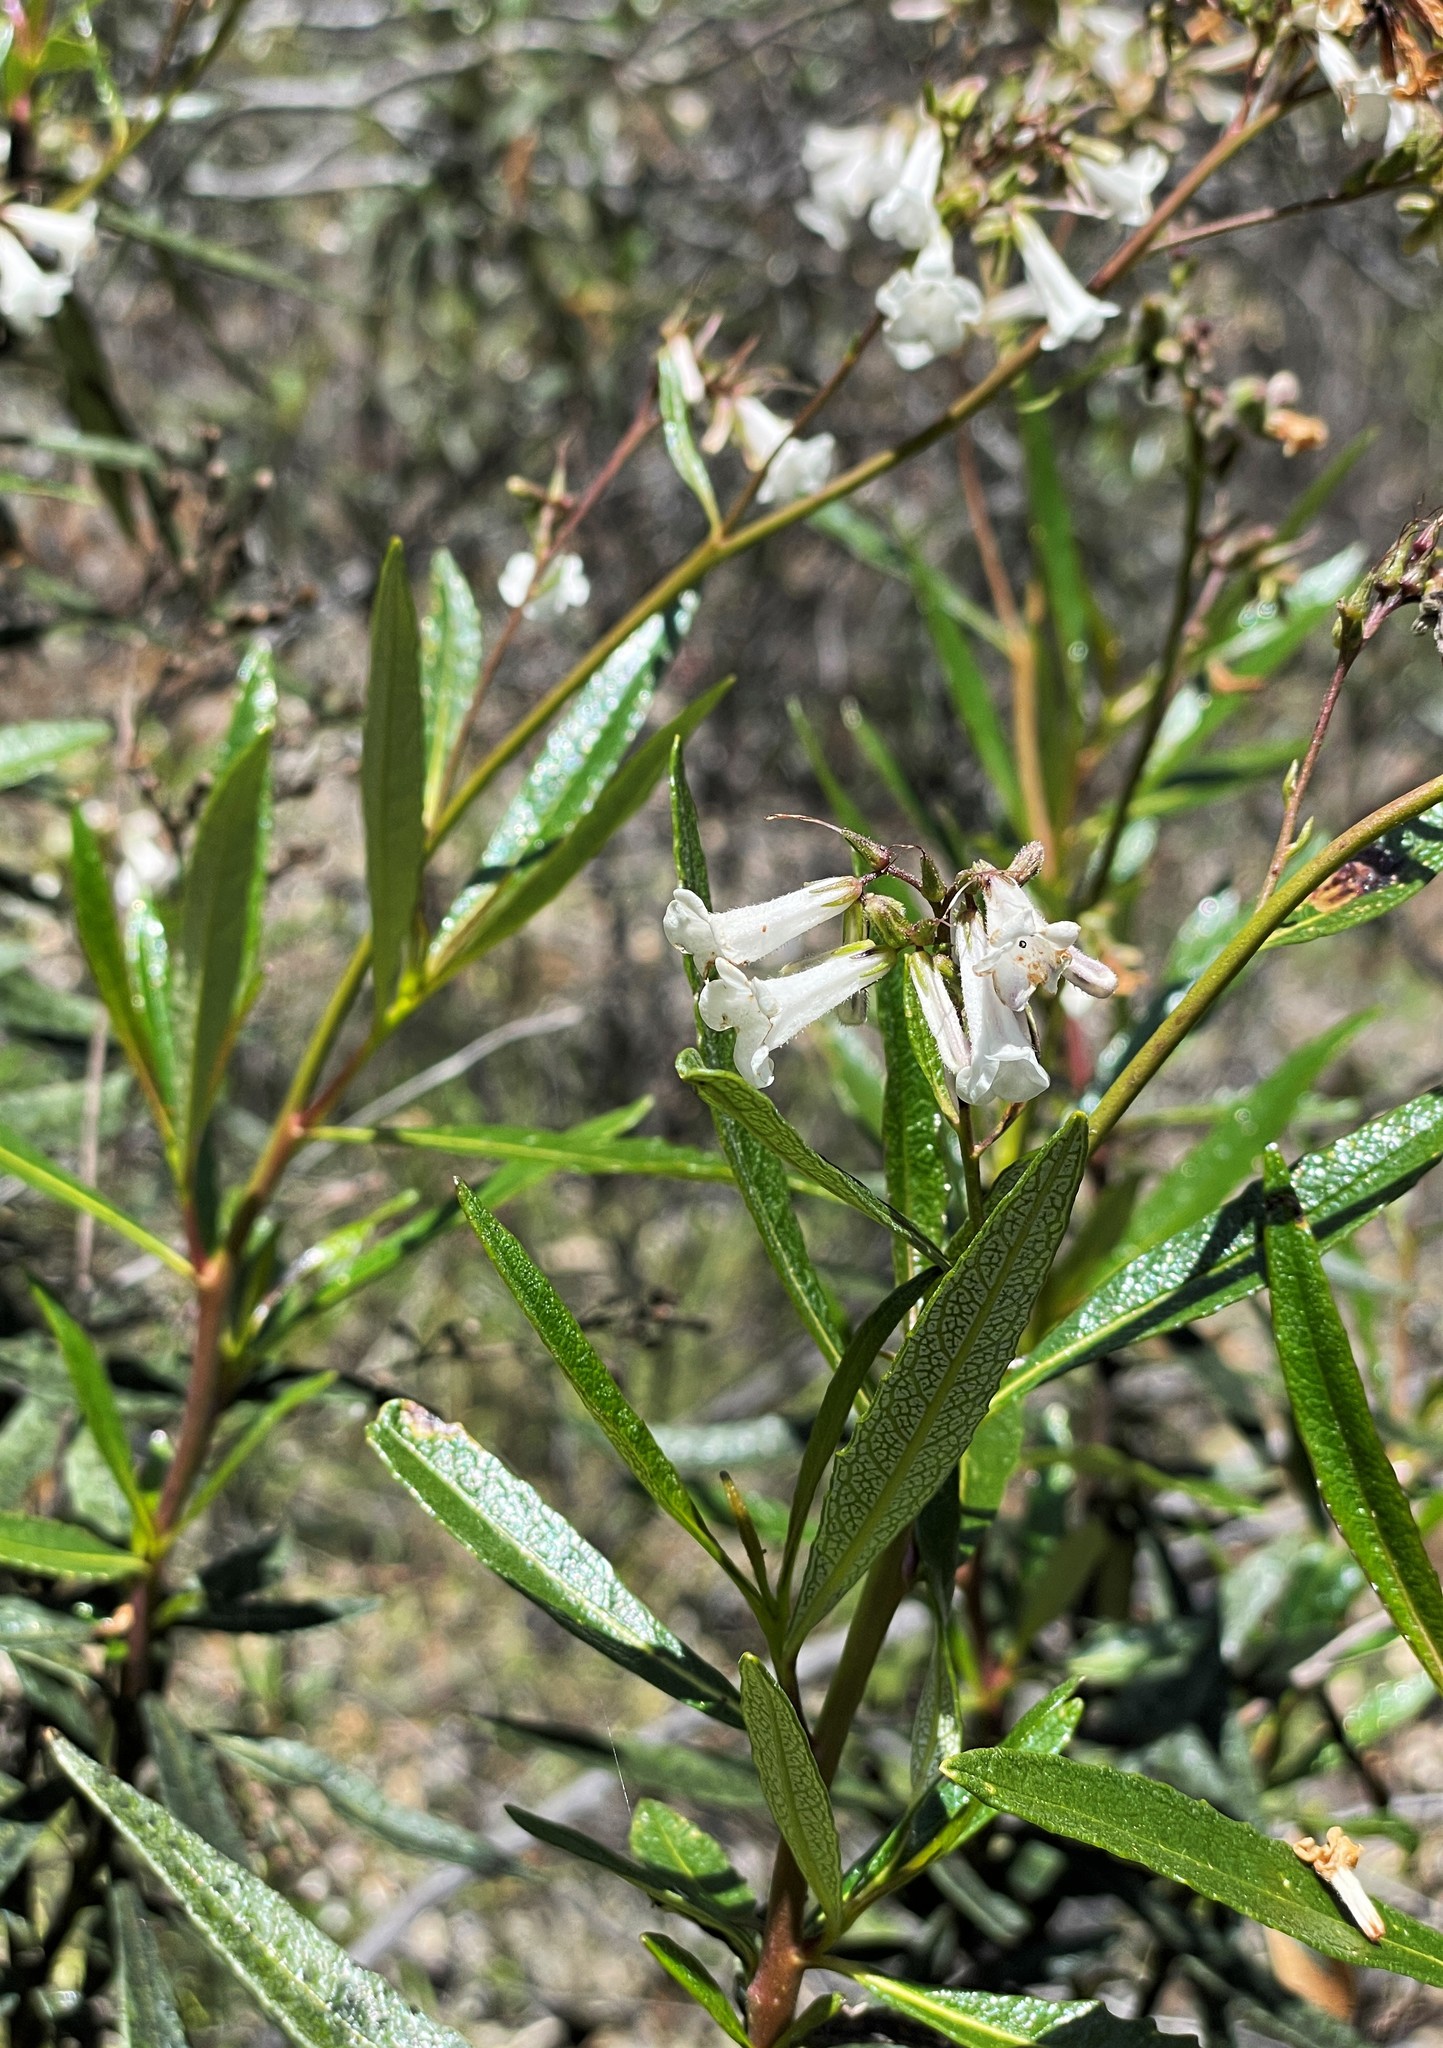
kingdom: Plantae
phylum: Tracheophyta
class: Magnoliopsida
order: Boraginales
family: Namaceae
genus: Eriodictyon
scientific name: Eriodictyon californicum
